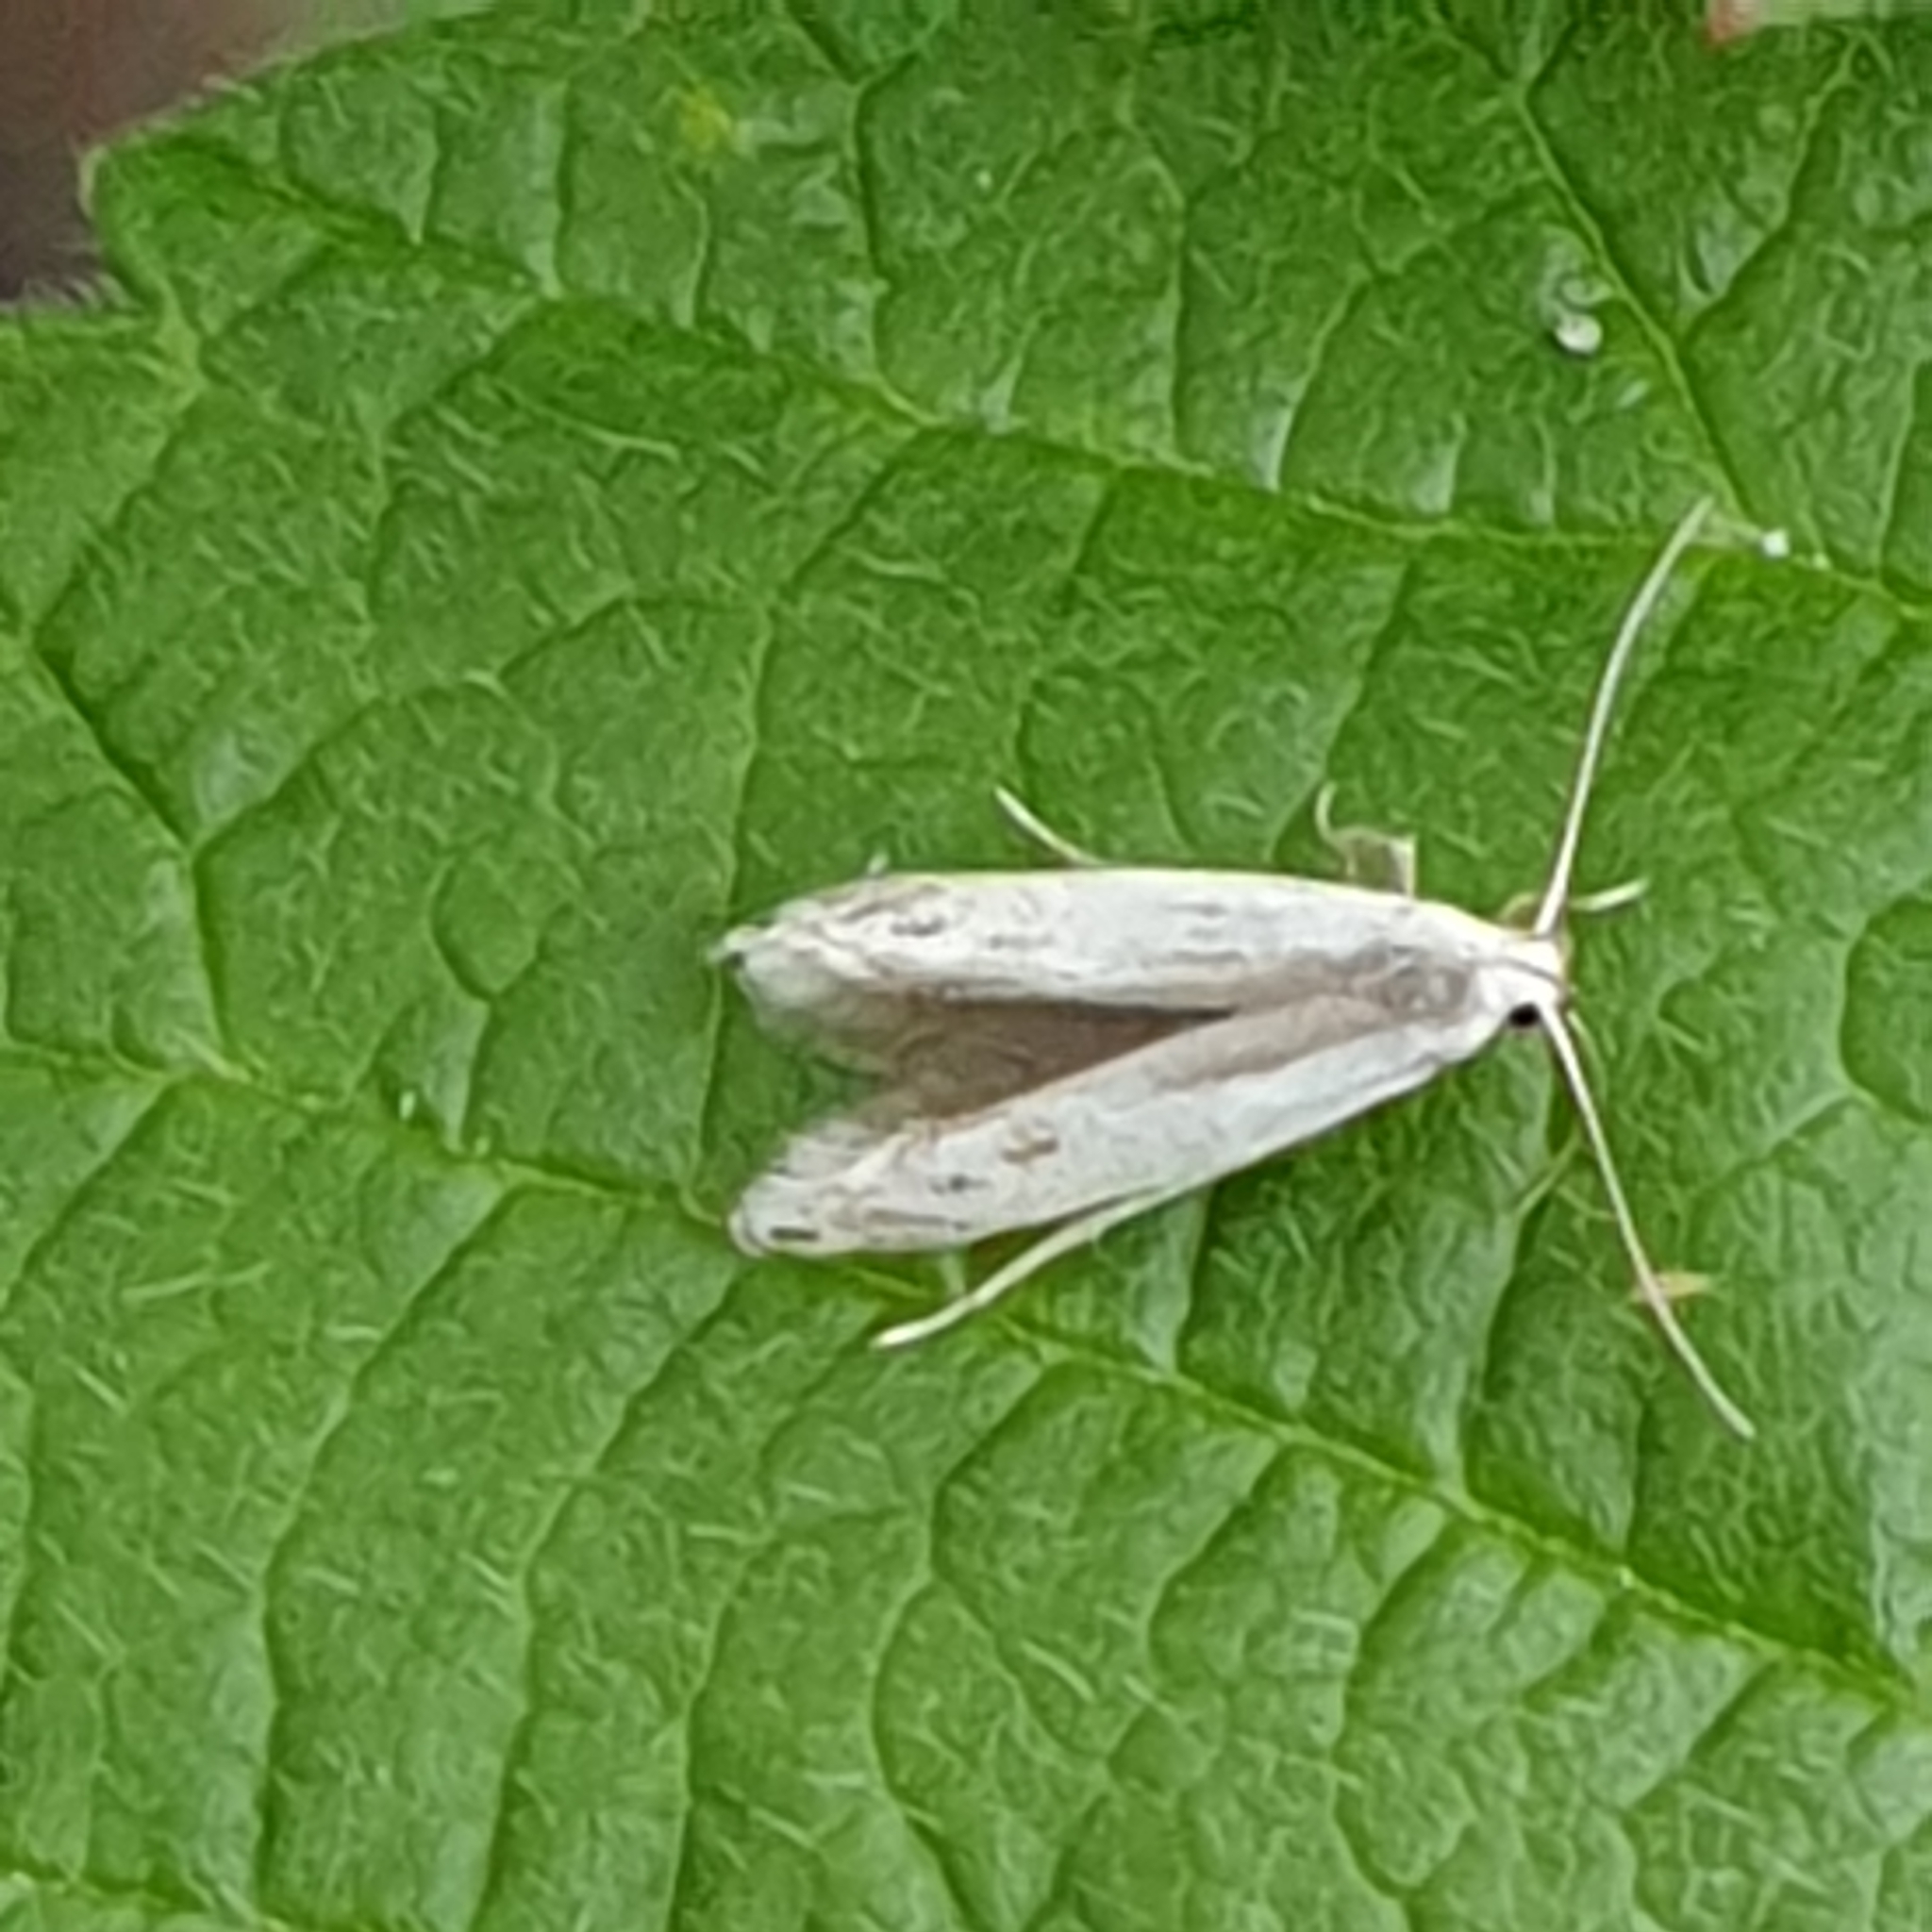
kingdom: Animalia
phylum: Arthropoda
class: Insecta
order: Lepidoptera
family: Gelechiidae
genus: Thiotricha
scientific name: Thiotricha subocellea
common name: Eyelet sober
